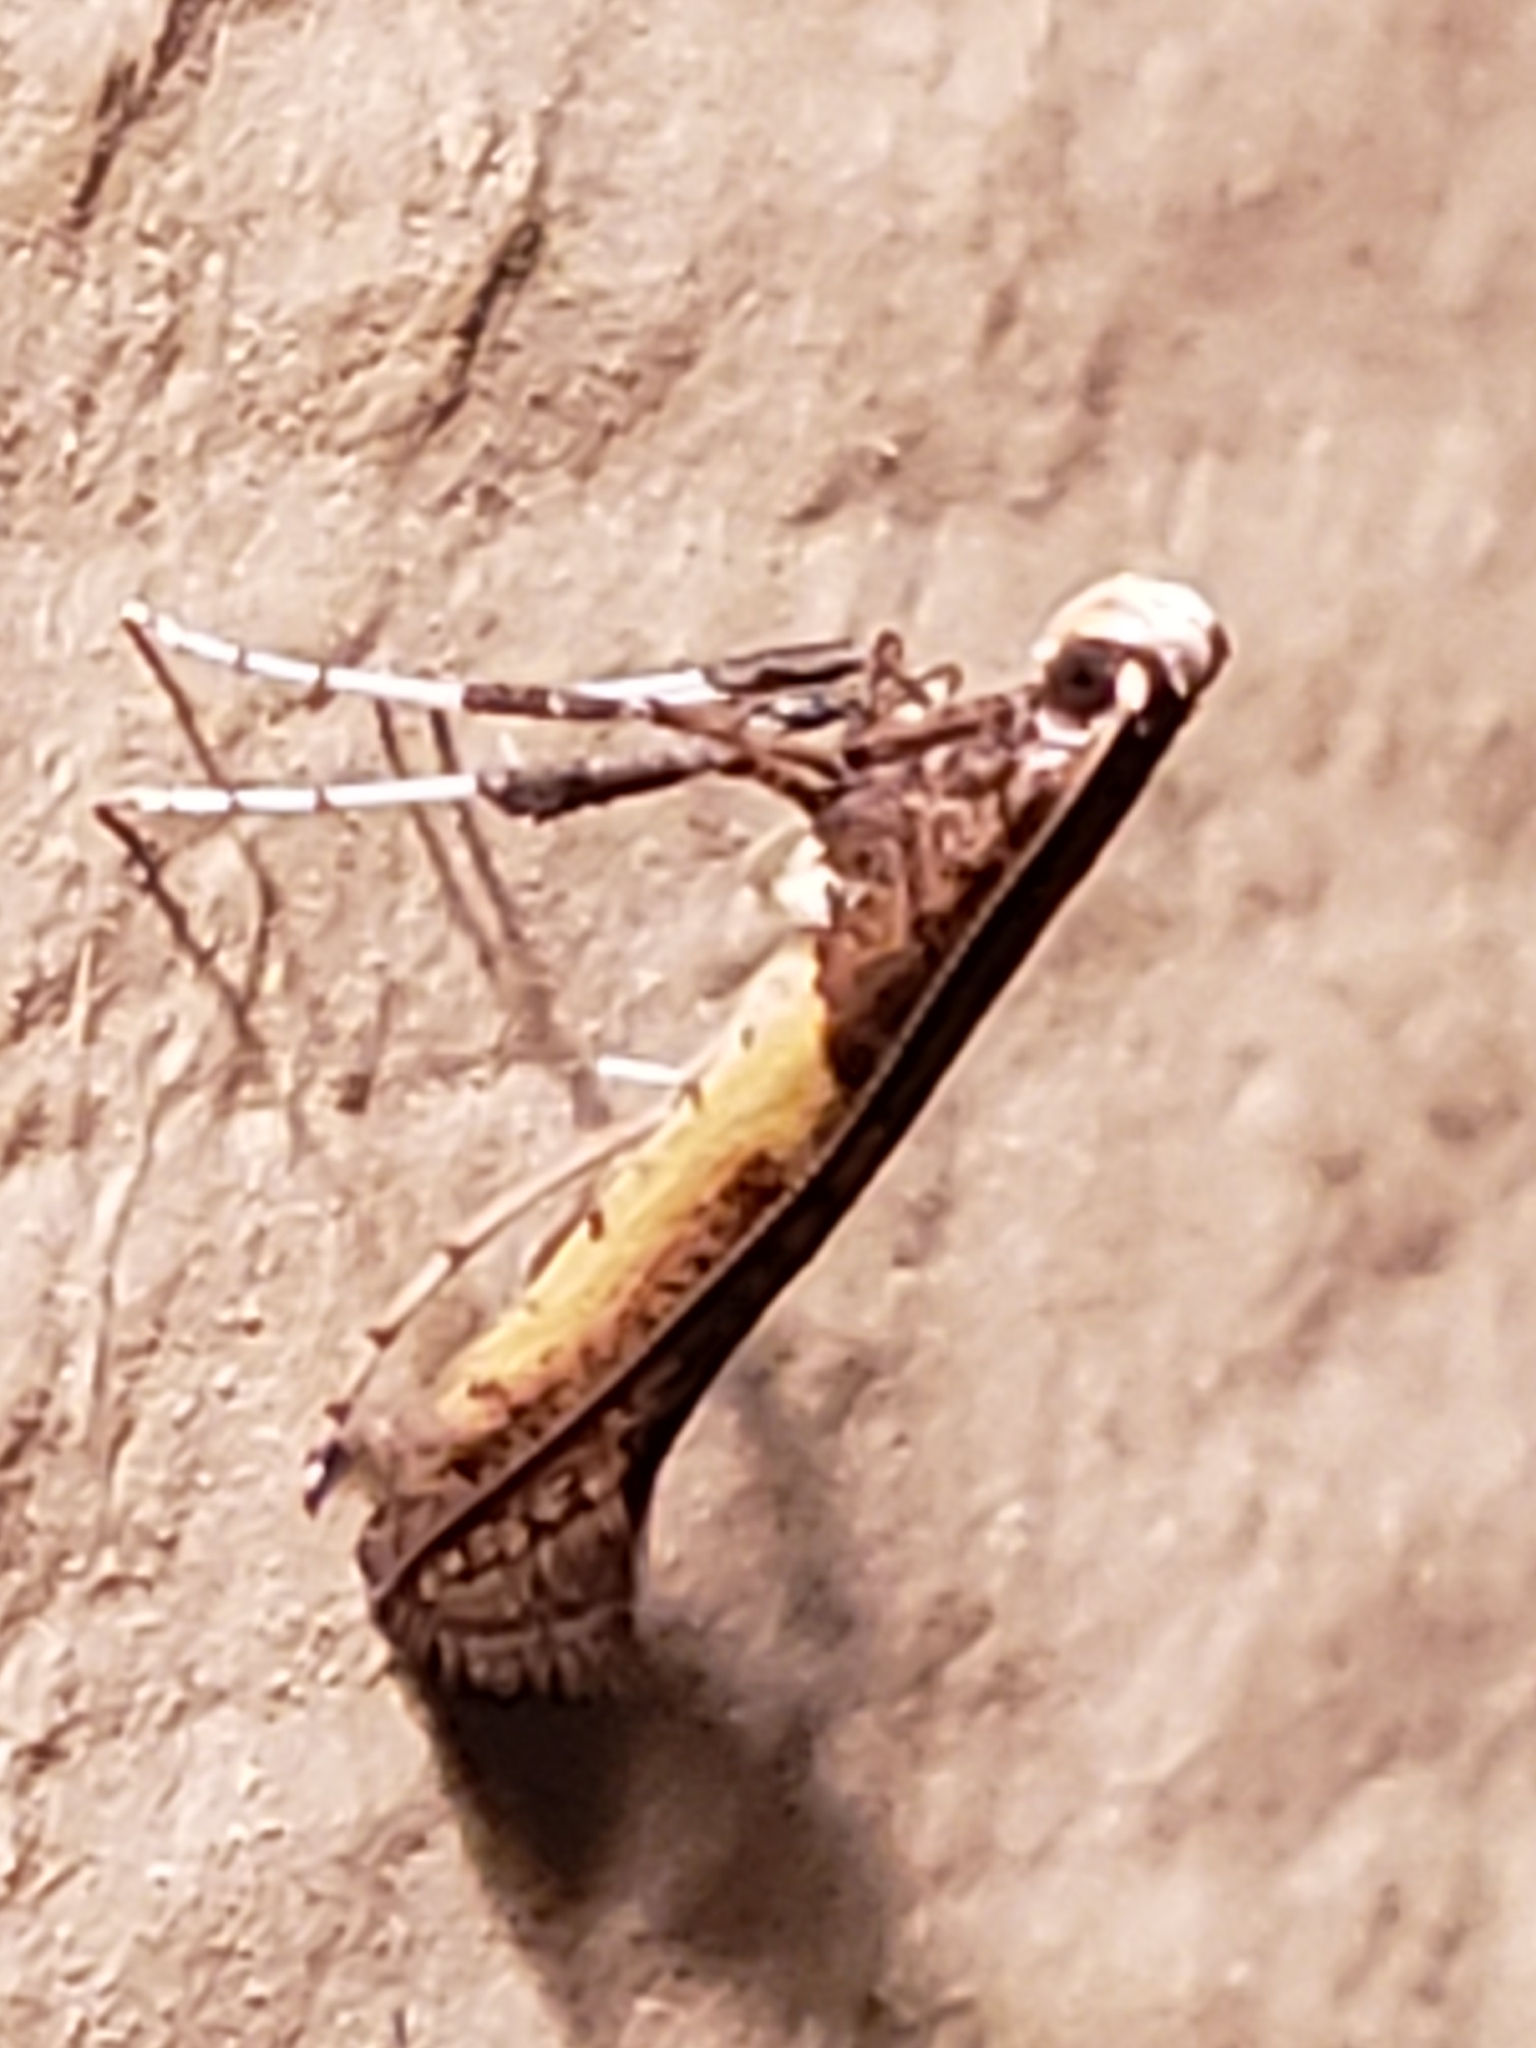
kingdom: Animalia
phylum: Arthropoda
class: Insecta
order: Lepidoptera
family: Gracillariidae
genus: Caloptilia
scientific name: Caloptilia azaleella
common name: Azalea leafminer
